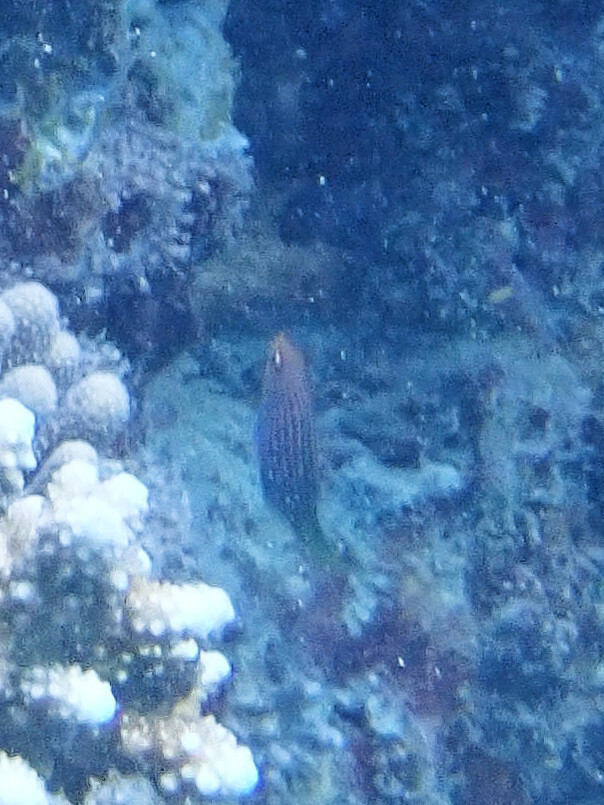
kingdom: Animalia
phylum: Chordata
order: Perciformes
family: Labridae
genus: Pseudocheilinus
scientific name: Pseudocheilinus hexataenia
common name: Sixline wrasse
